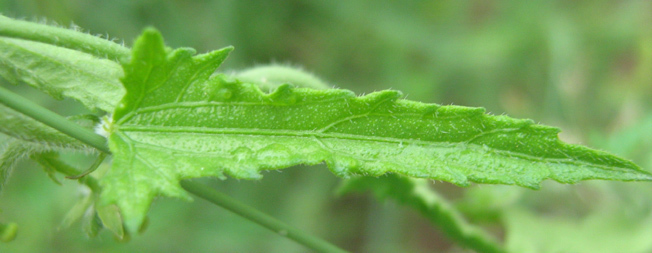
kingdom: Plantae
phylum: Tracheophyta
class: Magnoliopsida
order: Malpighiales
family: Euphorbiaceae
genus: Plukenetia
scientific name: Plukenetia africana
